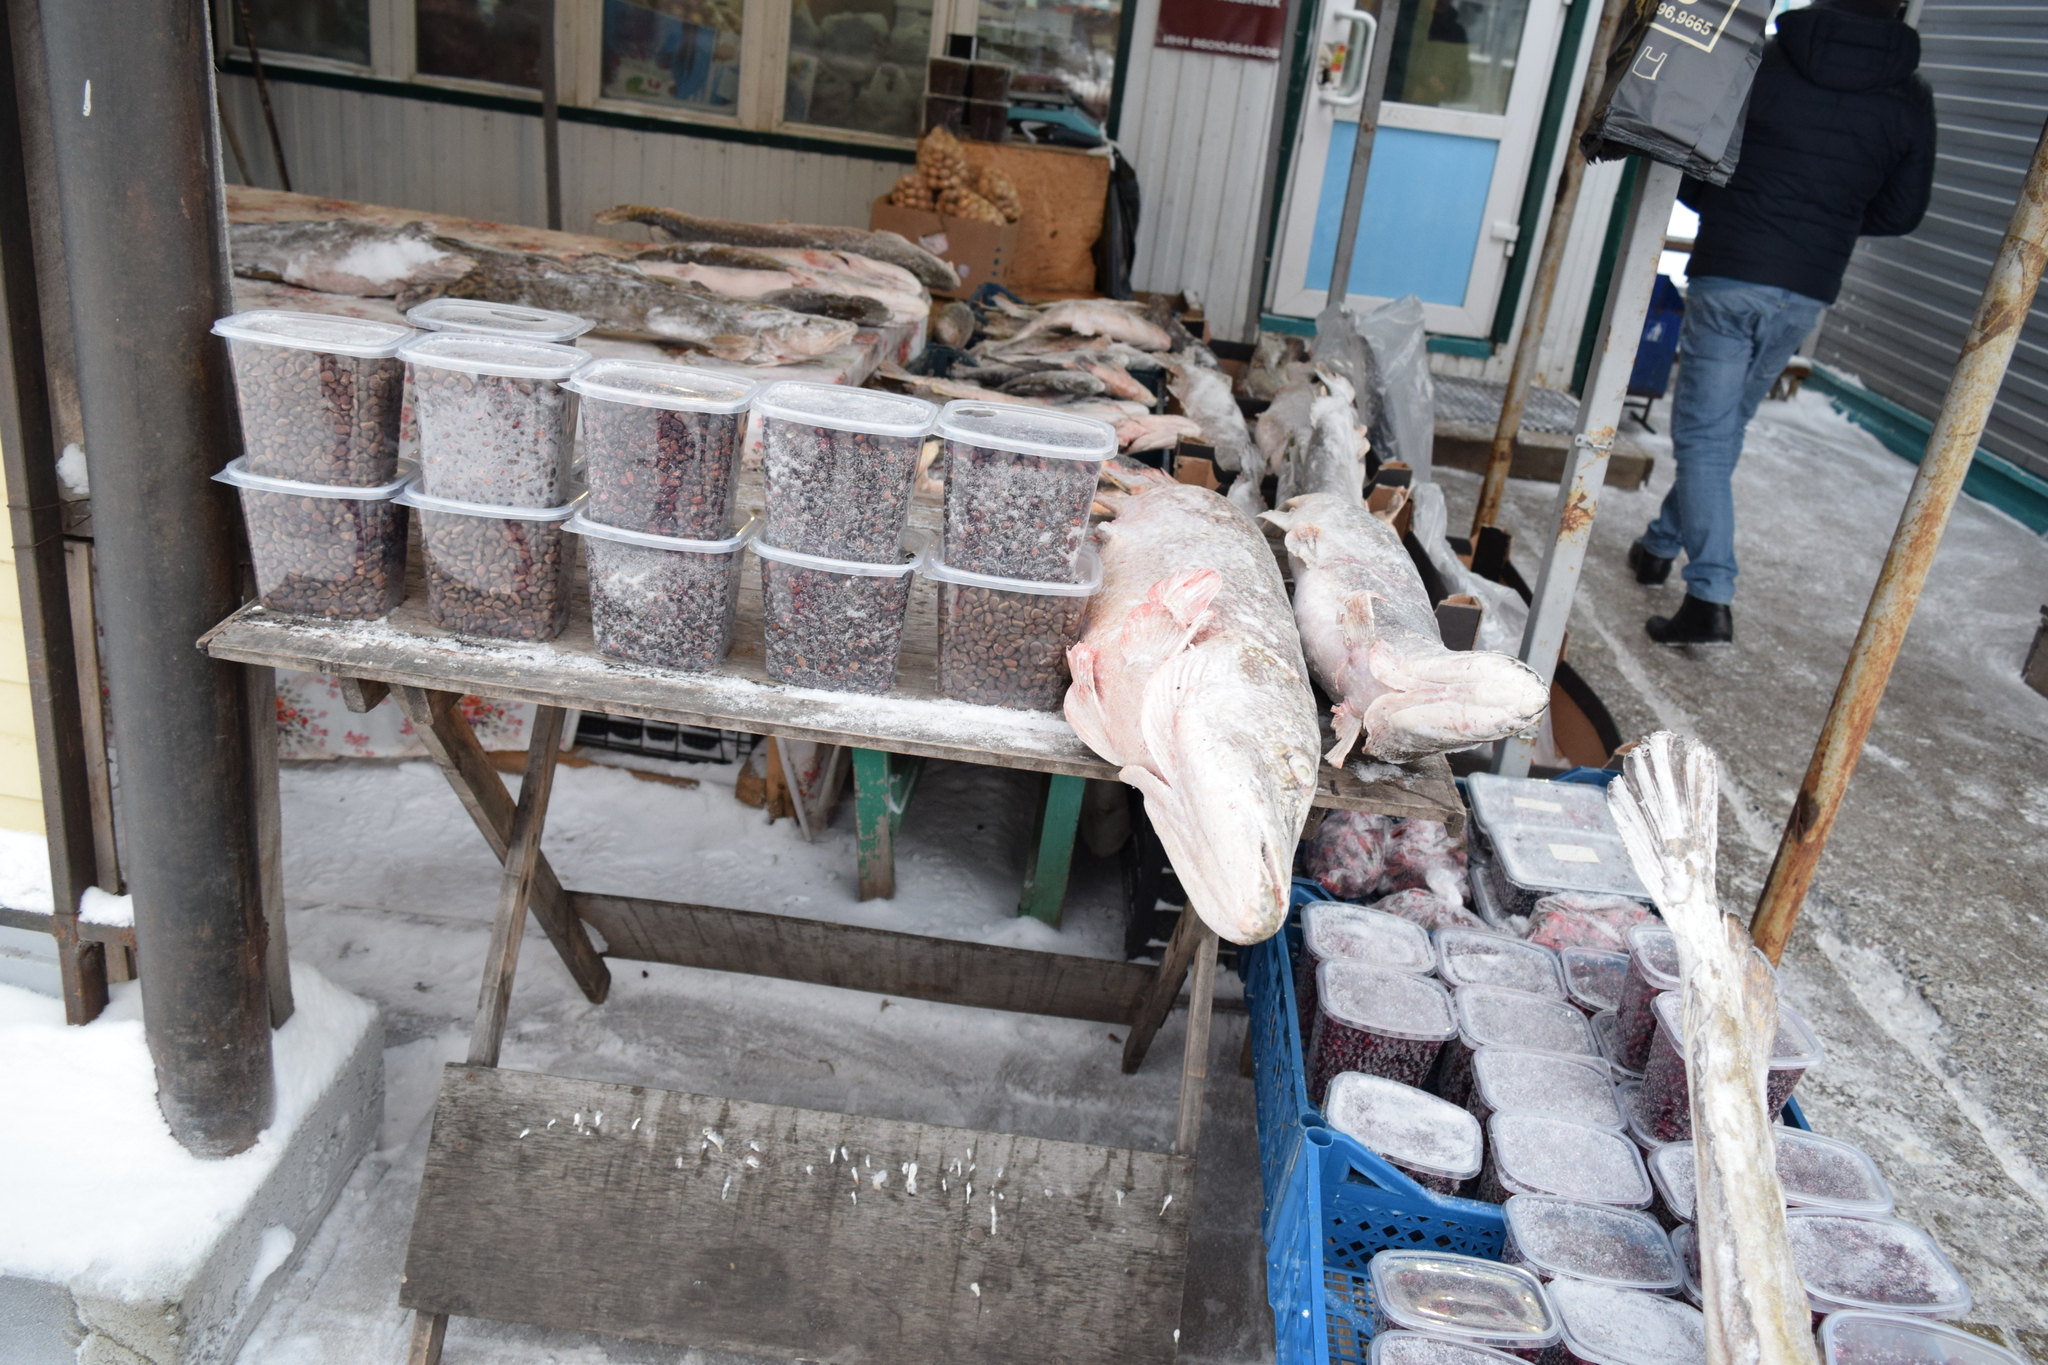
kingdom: Animalia
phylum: Chordata
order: Esociformes
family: Esocidae
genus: Esox
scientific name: Esox lucius
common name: Northern pike
